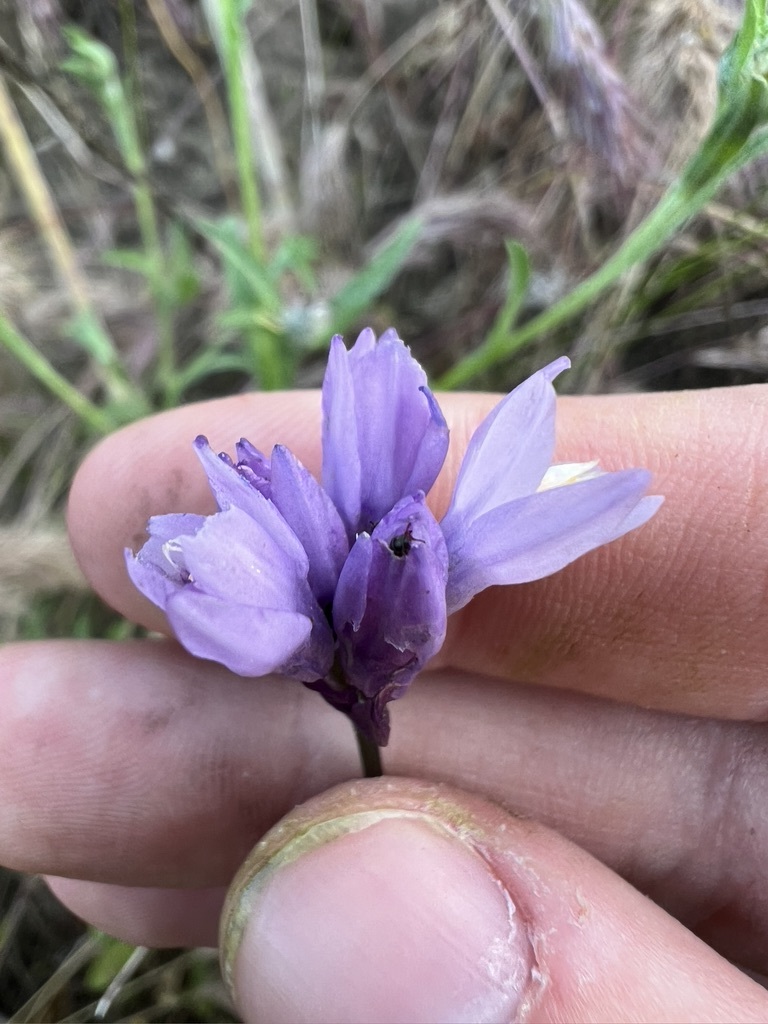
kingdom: Plantae
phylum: Tracheophyta
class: Liliopsida
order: Asparagales
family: Asparagaceae
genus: Dipterostemon
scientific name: Dipterostemon capitatus
